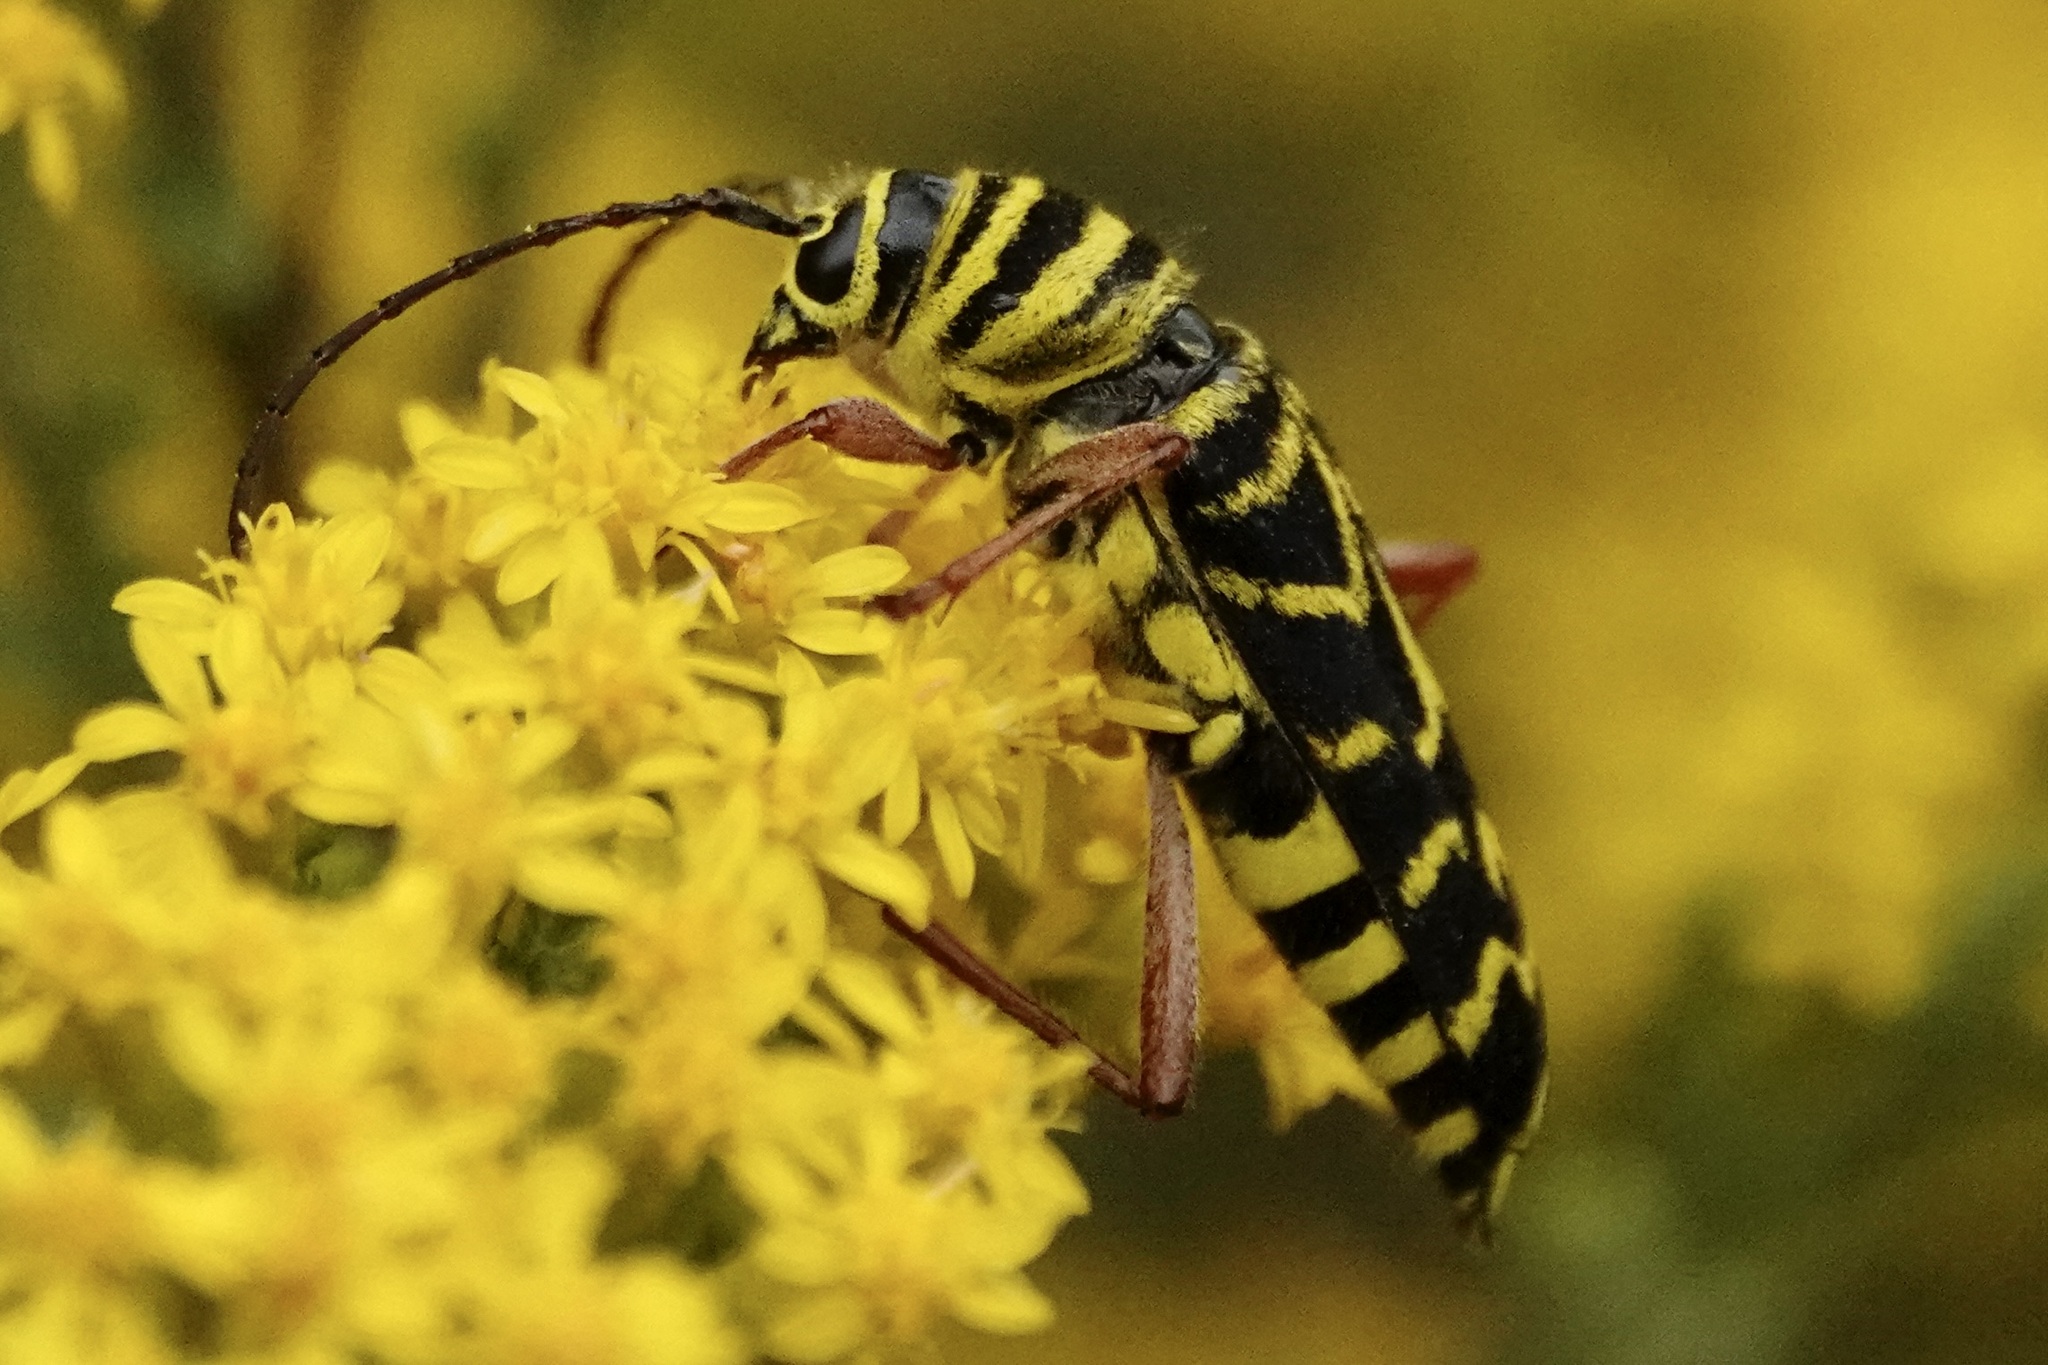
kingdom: Animalia
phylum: Arthropoda
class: Insecta
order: Coleoptera
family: Cerambycidae
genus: Megacyllene
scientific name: Megacyllene robiniae
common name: Locust borer
